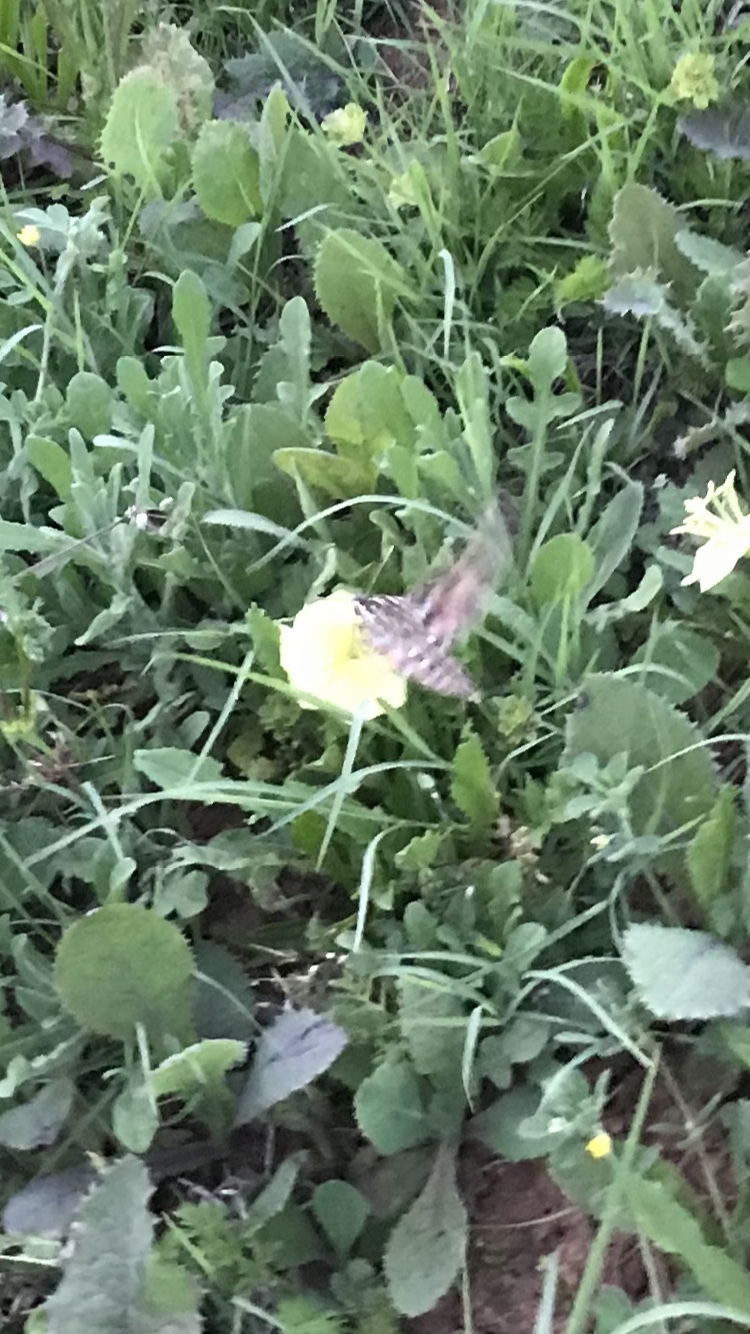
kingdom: Animalia
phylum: Arthropoda
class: Insecta
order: Lepidoptera
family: Sphingidae
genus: Hyles
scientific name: Hyles lineata
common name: White-lined sphinx
